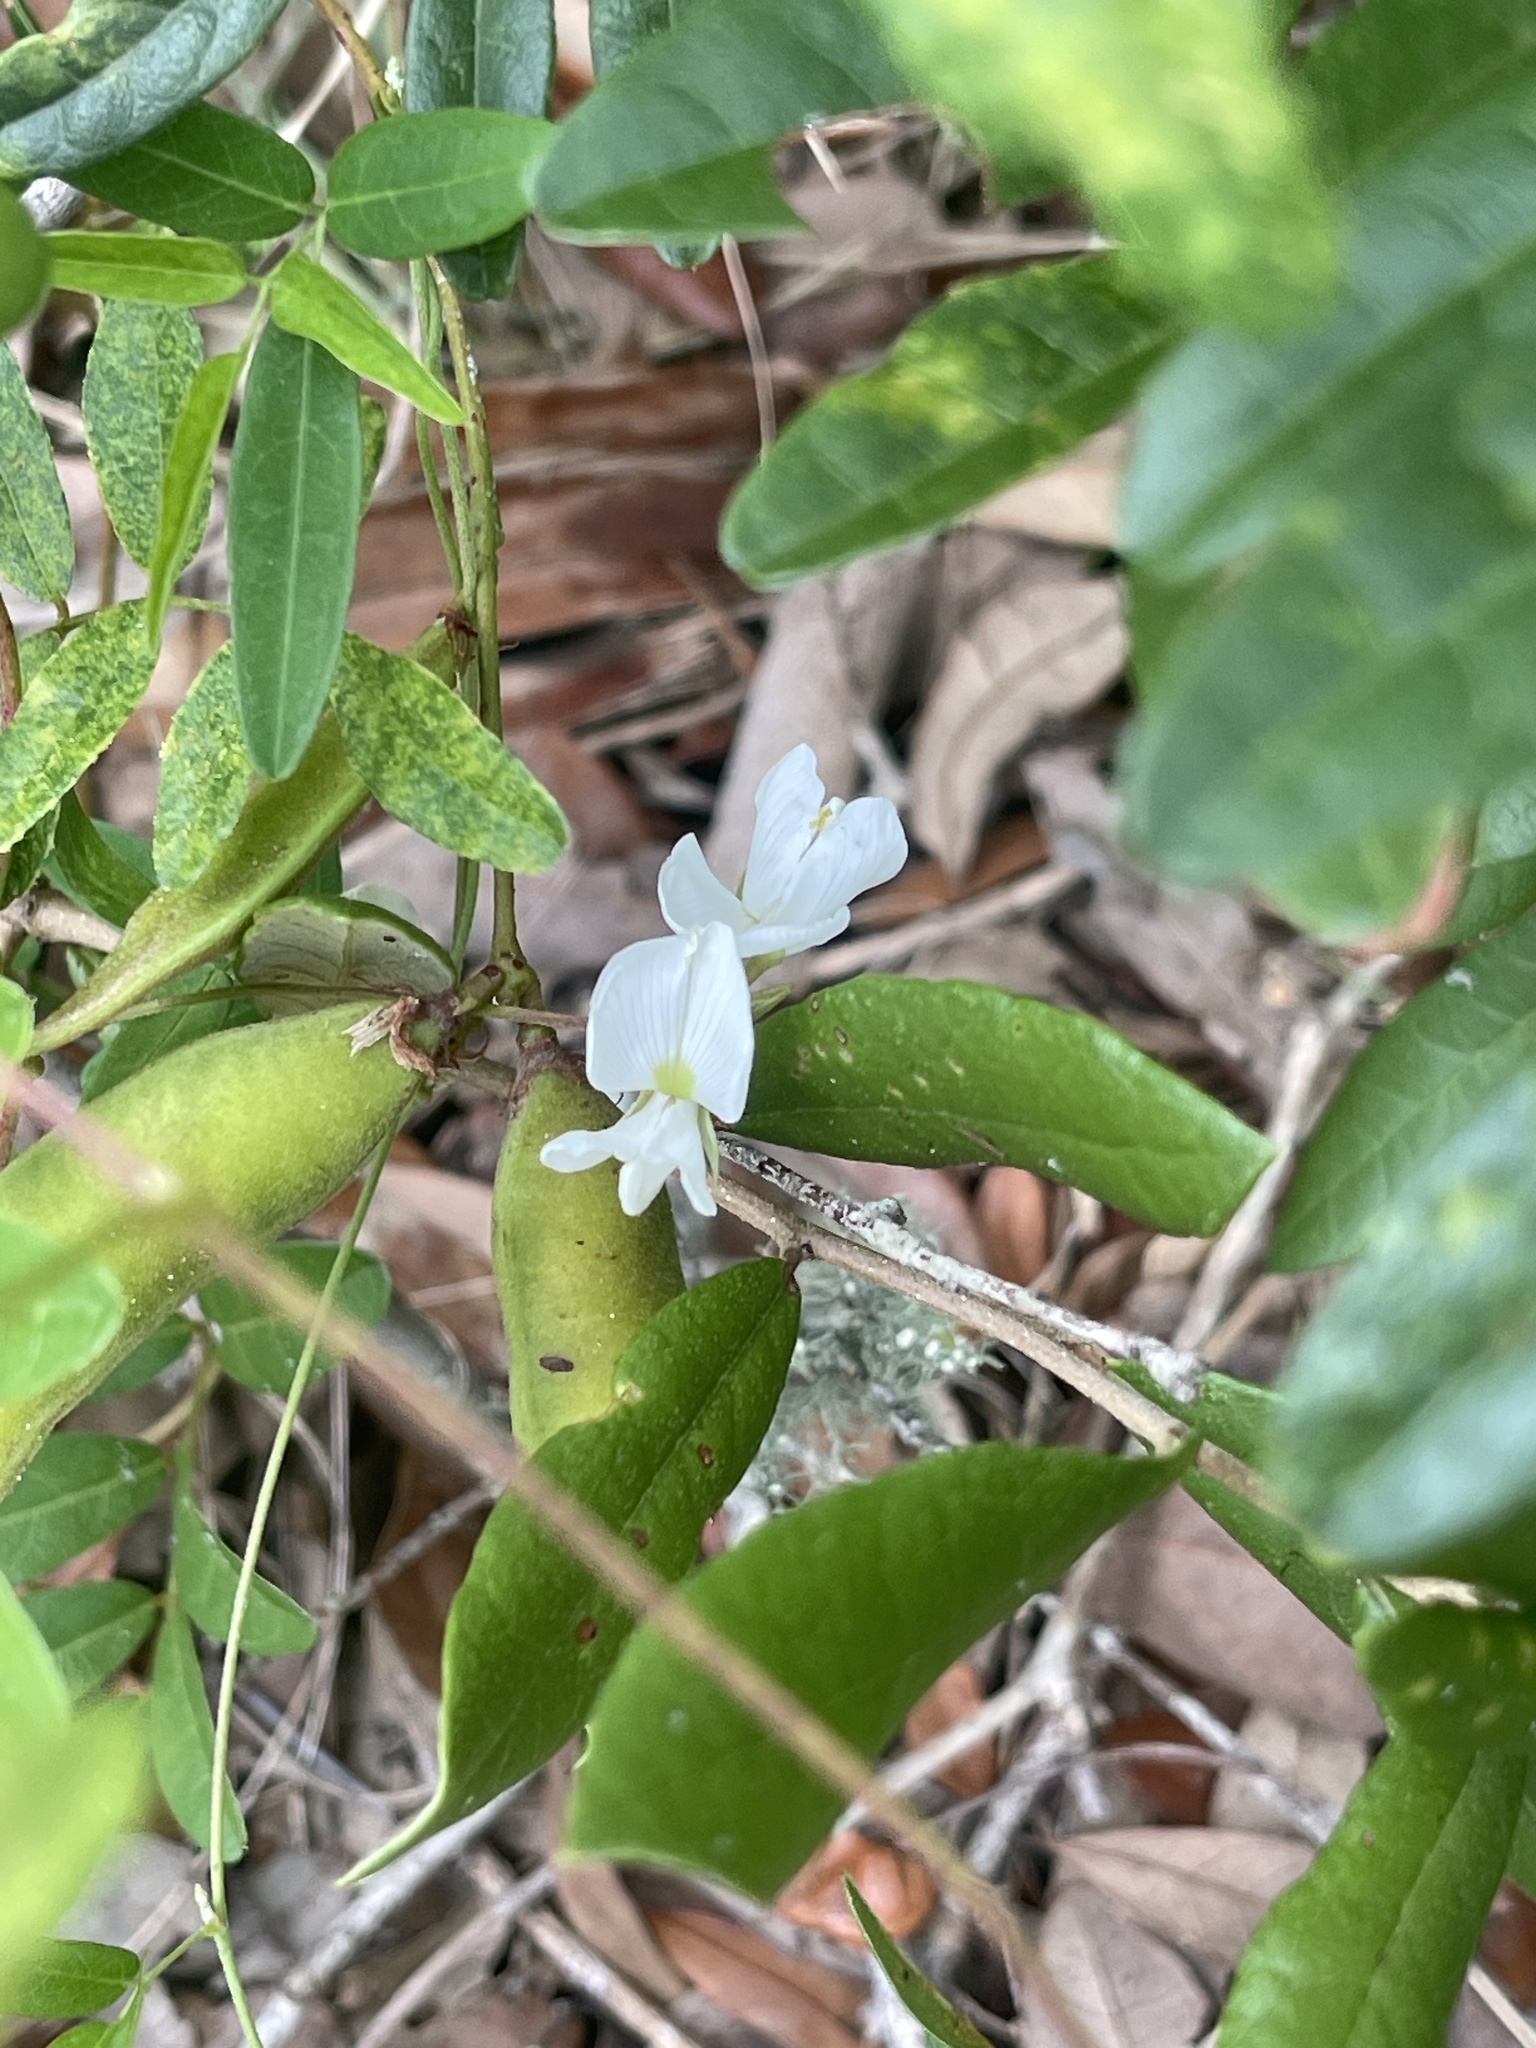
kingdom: Plantae
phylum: Tracheophyta
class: Magnoliopsida
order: Fabales
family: Fabaceae
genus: Galactia
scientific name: Galactia elliottii
